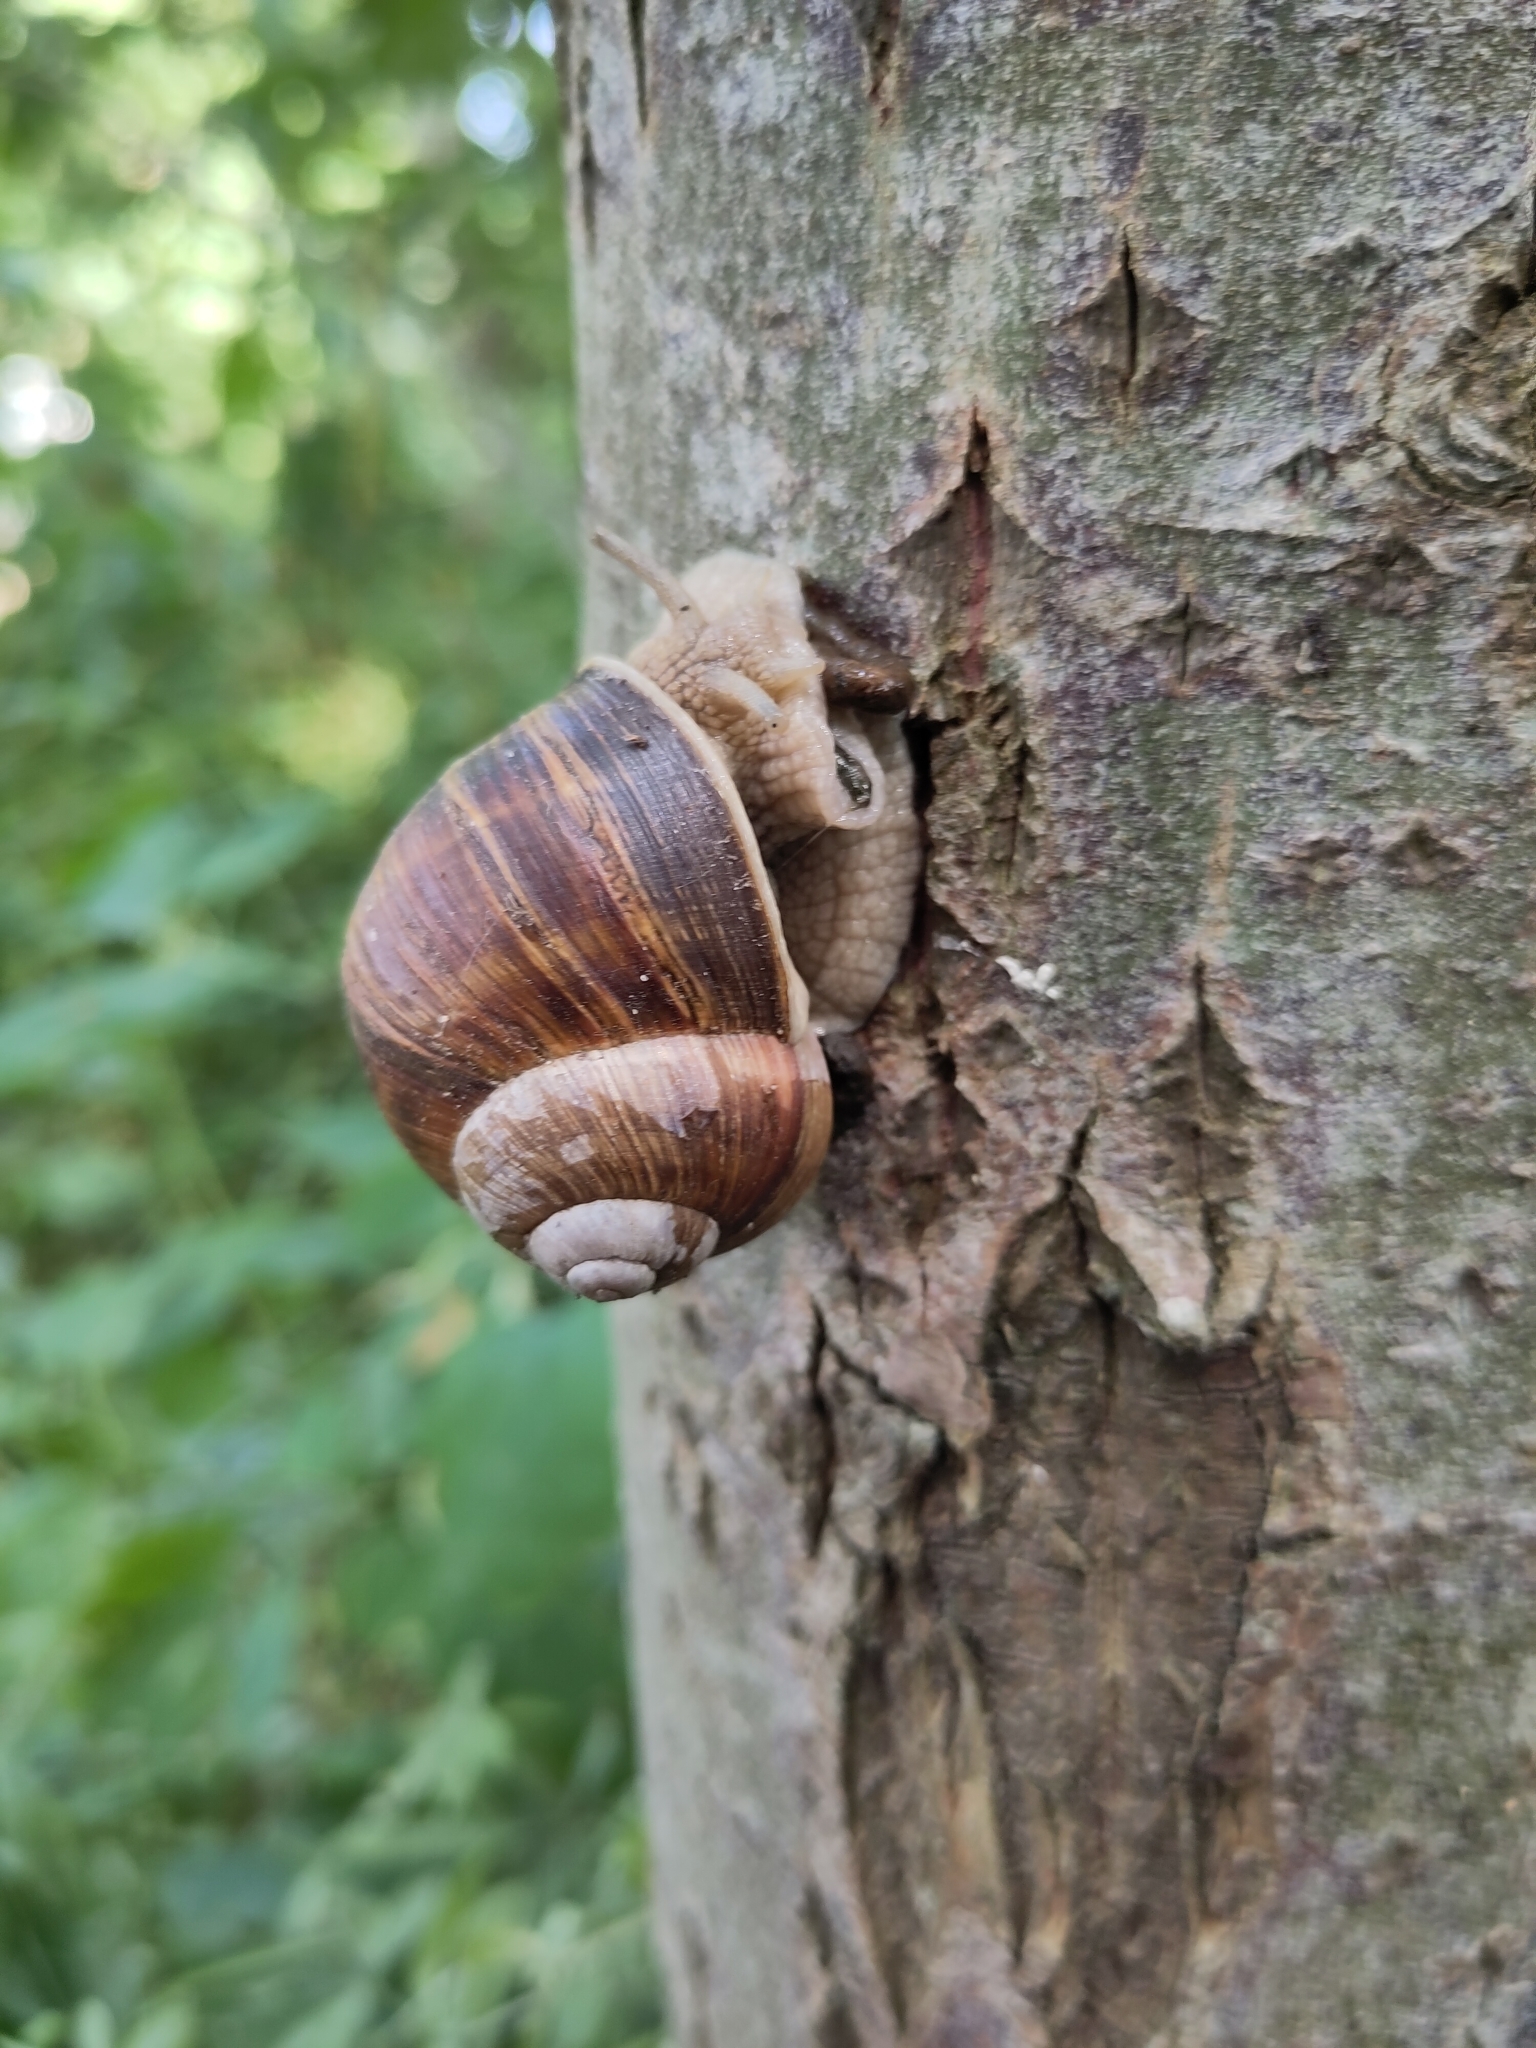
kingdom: Animalia
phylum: Mollusca
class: Gastropoda
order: Stylommatophora
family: Helicidae
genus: Helix
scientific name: Helix pomatia
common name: Roman snail
